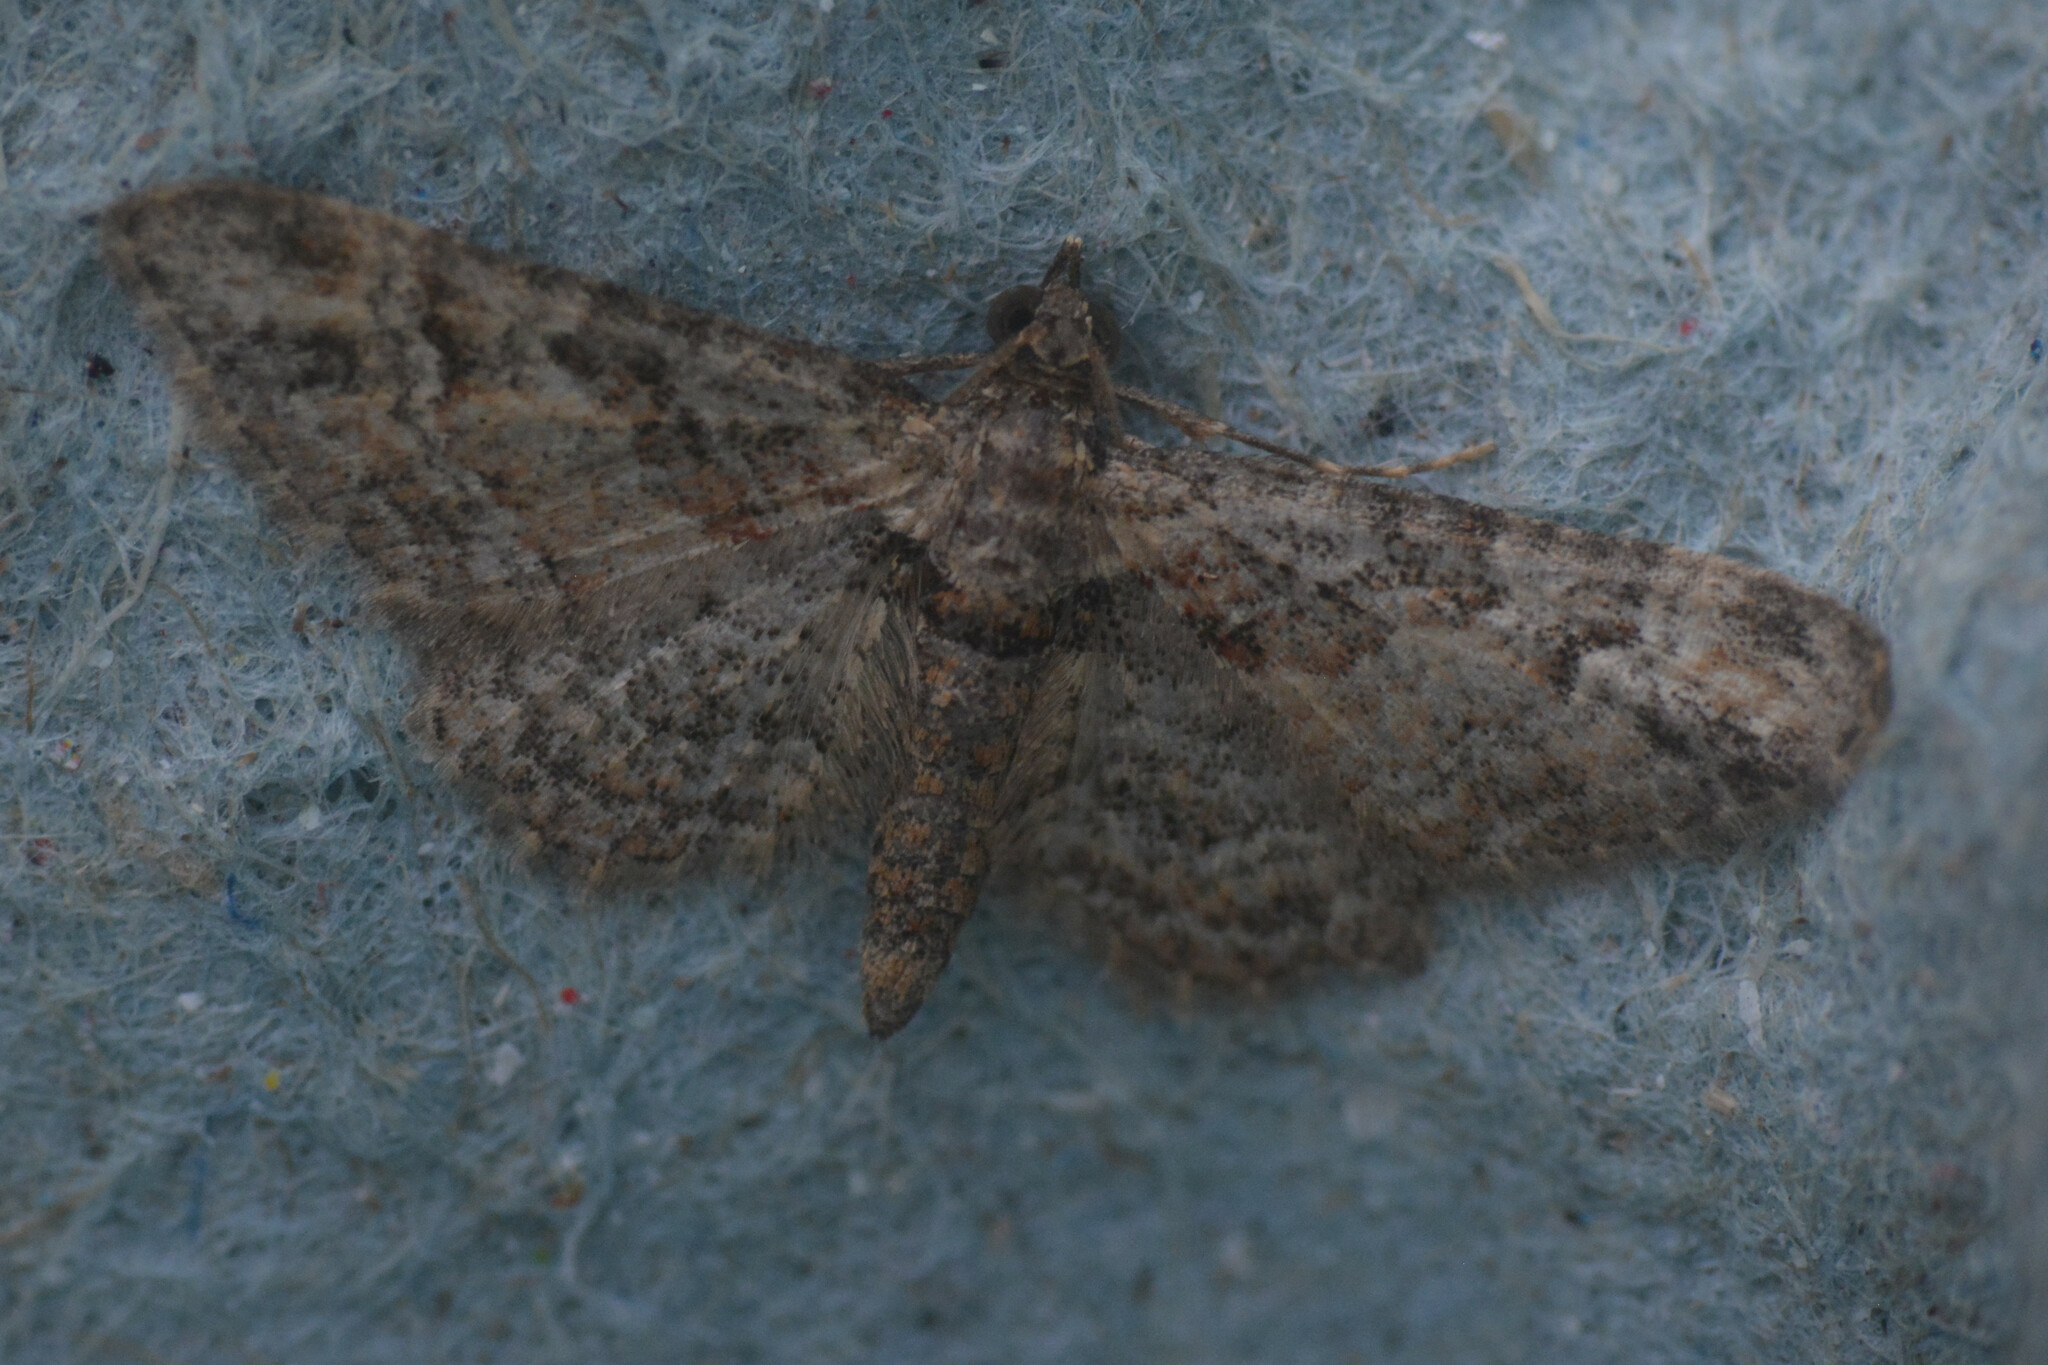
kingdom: Animalia
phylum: Arthropoda
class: Insecta
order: Lepidoptera
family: Geometridae
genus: Gymnoscelis
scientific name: Gymnoscelis rufifasciata
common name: Double-striped pug
